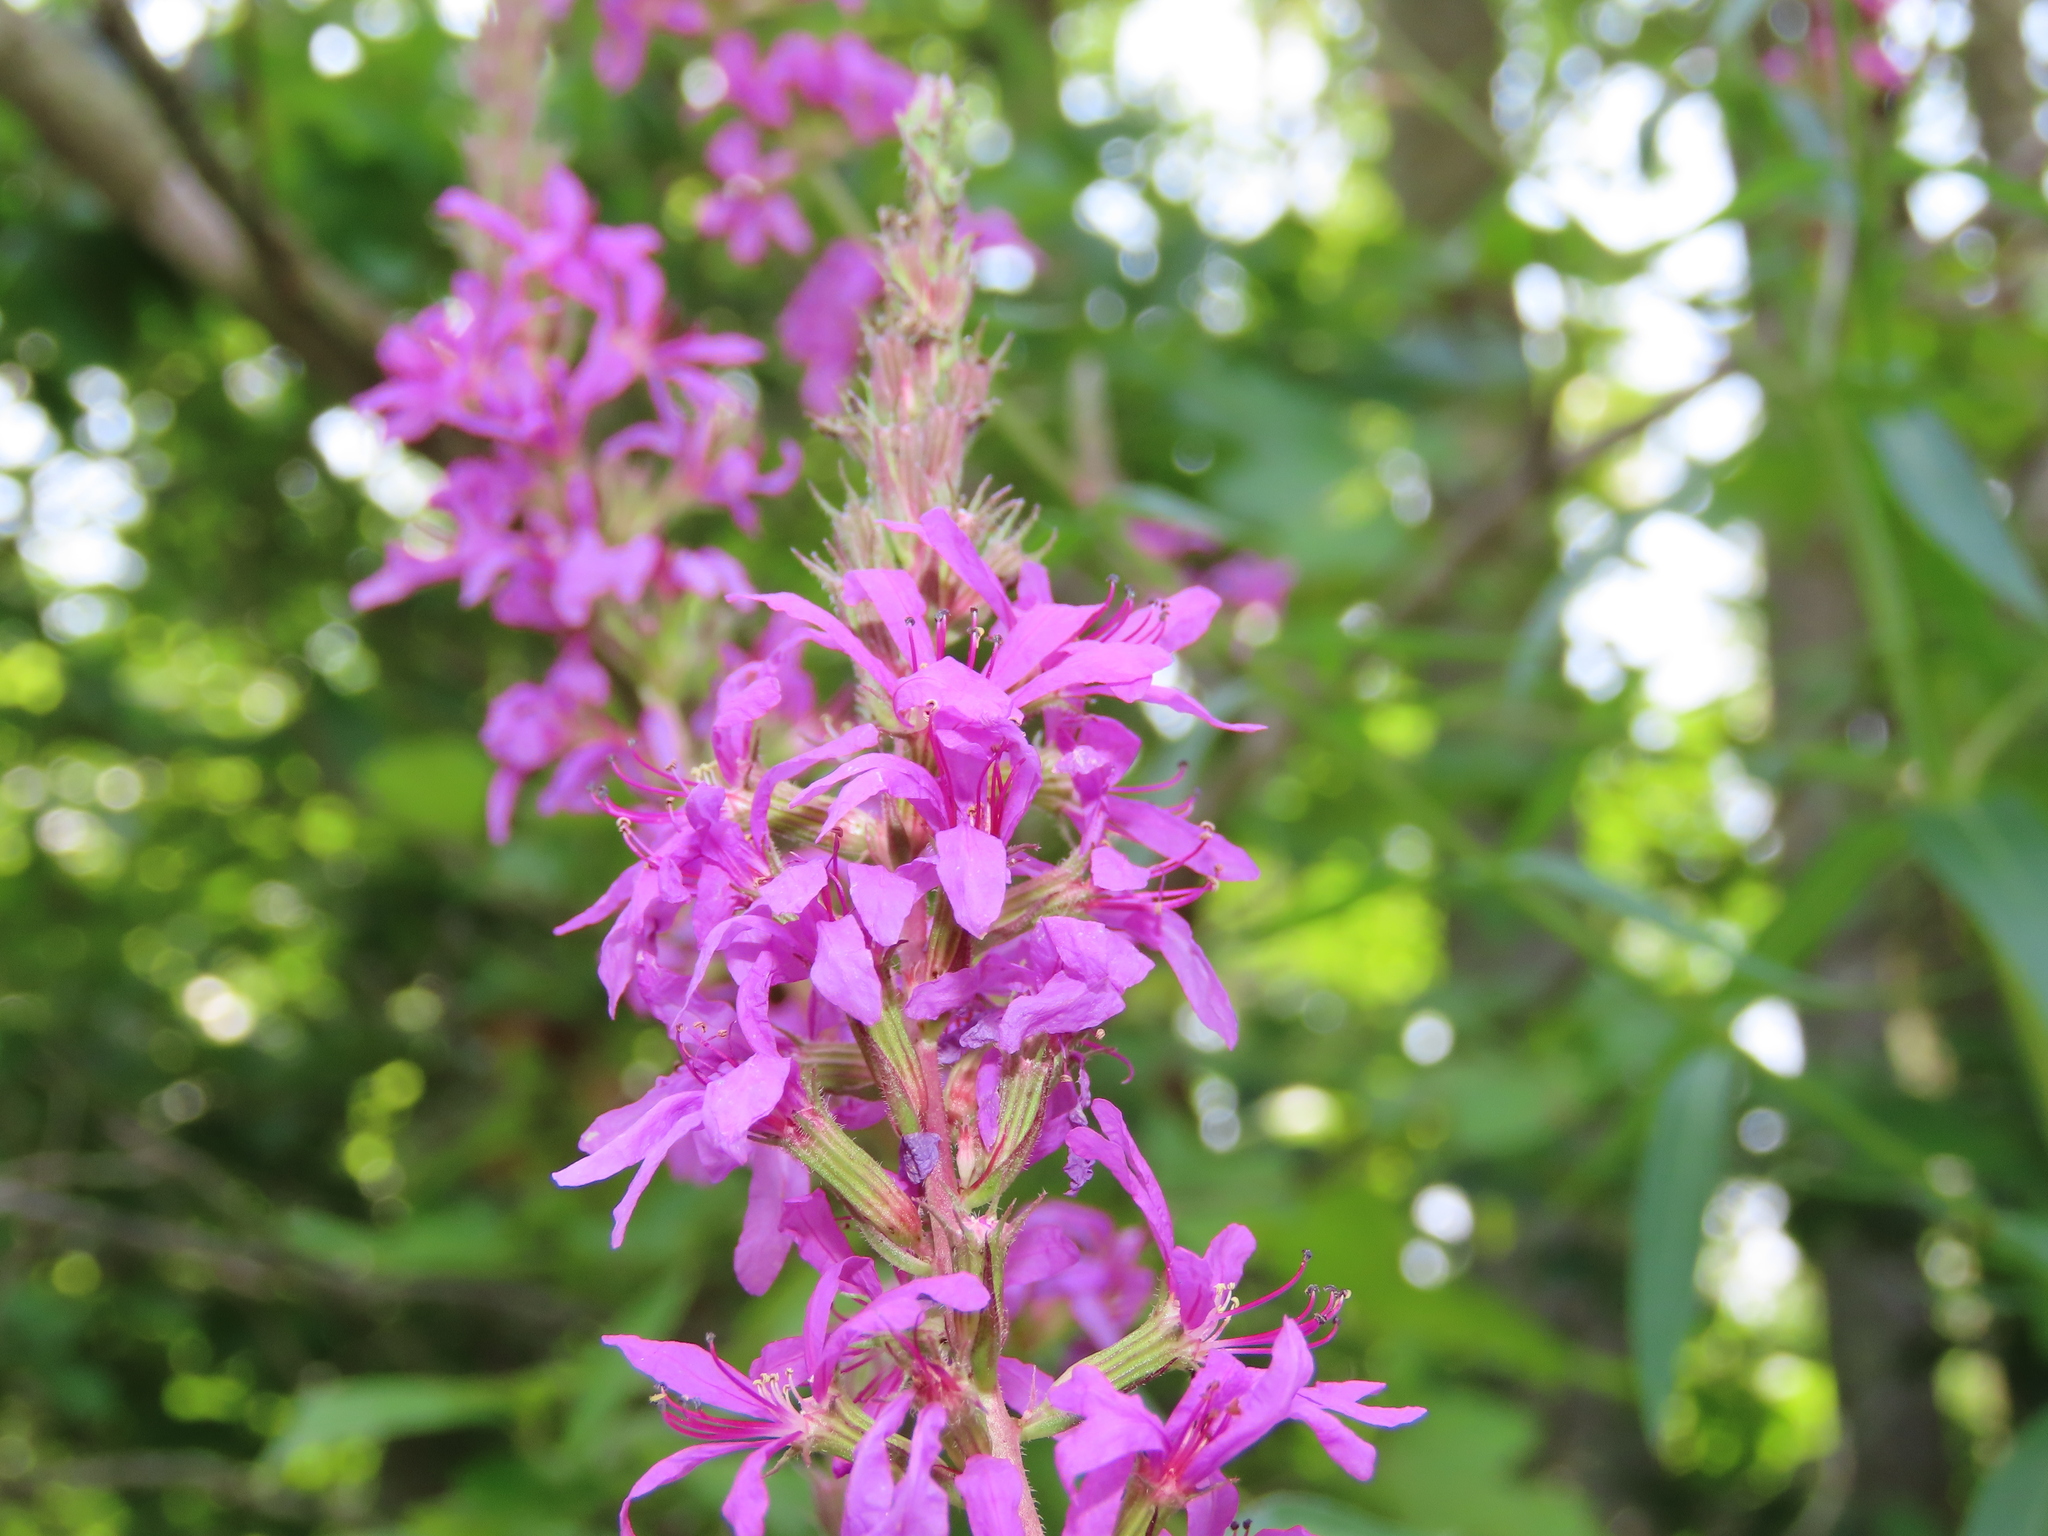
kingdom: Plantae
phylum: Tracheophyta
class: Magnoliopsida
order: Myrtales
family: Lythraceae
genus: Lythrum
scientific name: Lythrum salicaria
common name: Purple loosestrife
